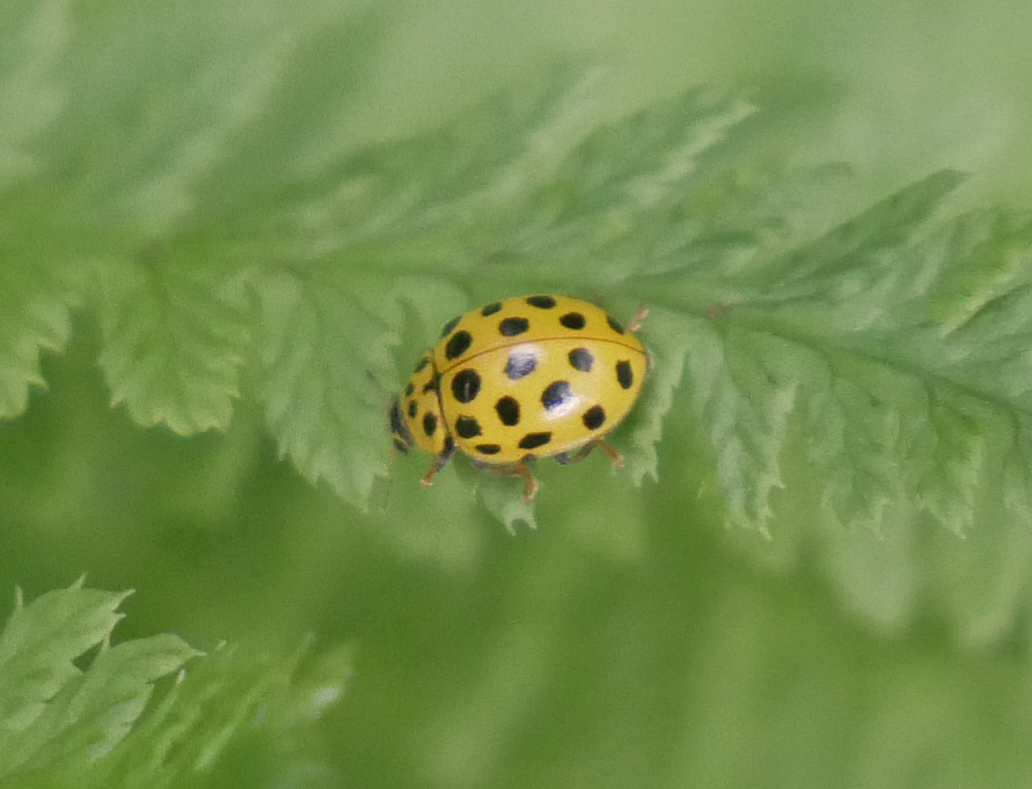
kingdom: Animalia
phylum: Arthropoda
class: Insecta
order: Coleoptera
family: Coccinellidae
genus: Psyllobora
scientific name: Psyllobora vigintiduopunctata
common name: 22-spot ladybird
